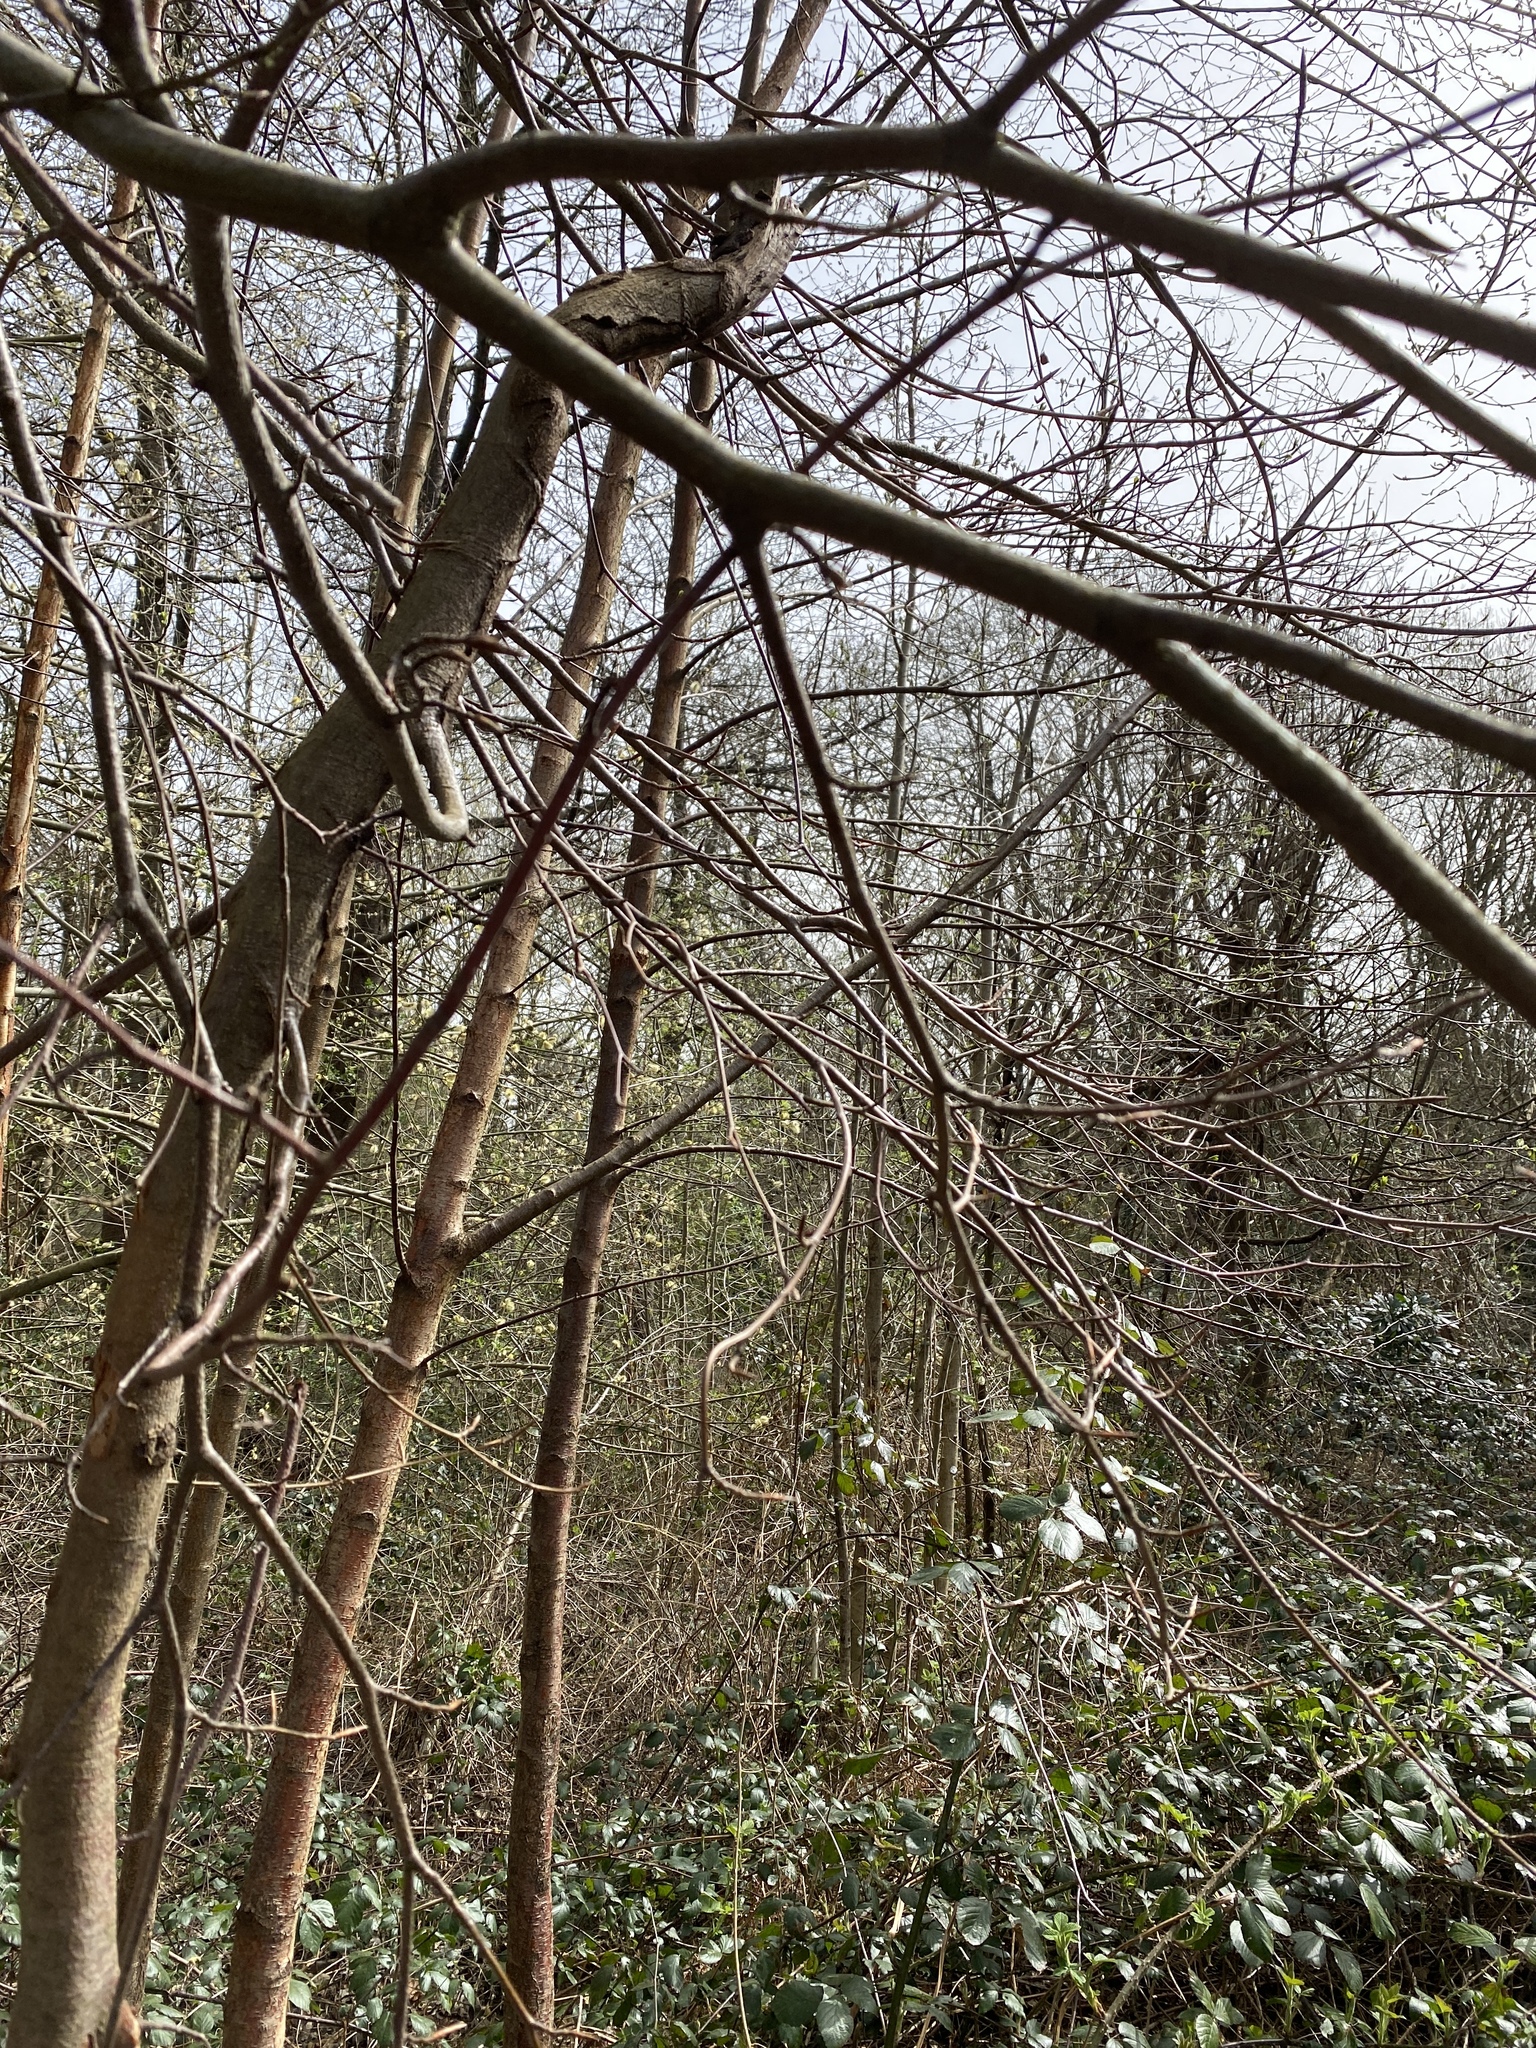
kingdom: Animalia
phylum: Chordata
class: Aves
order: Passeriformes
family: Phylloscopidae
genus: Phylloscopus
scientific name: Phylloscopus collybita
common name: Common chiffchaff
